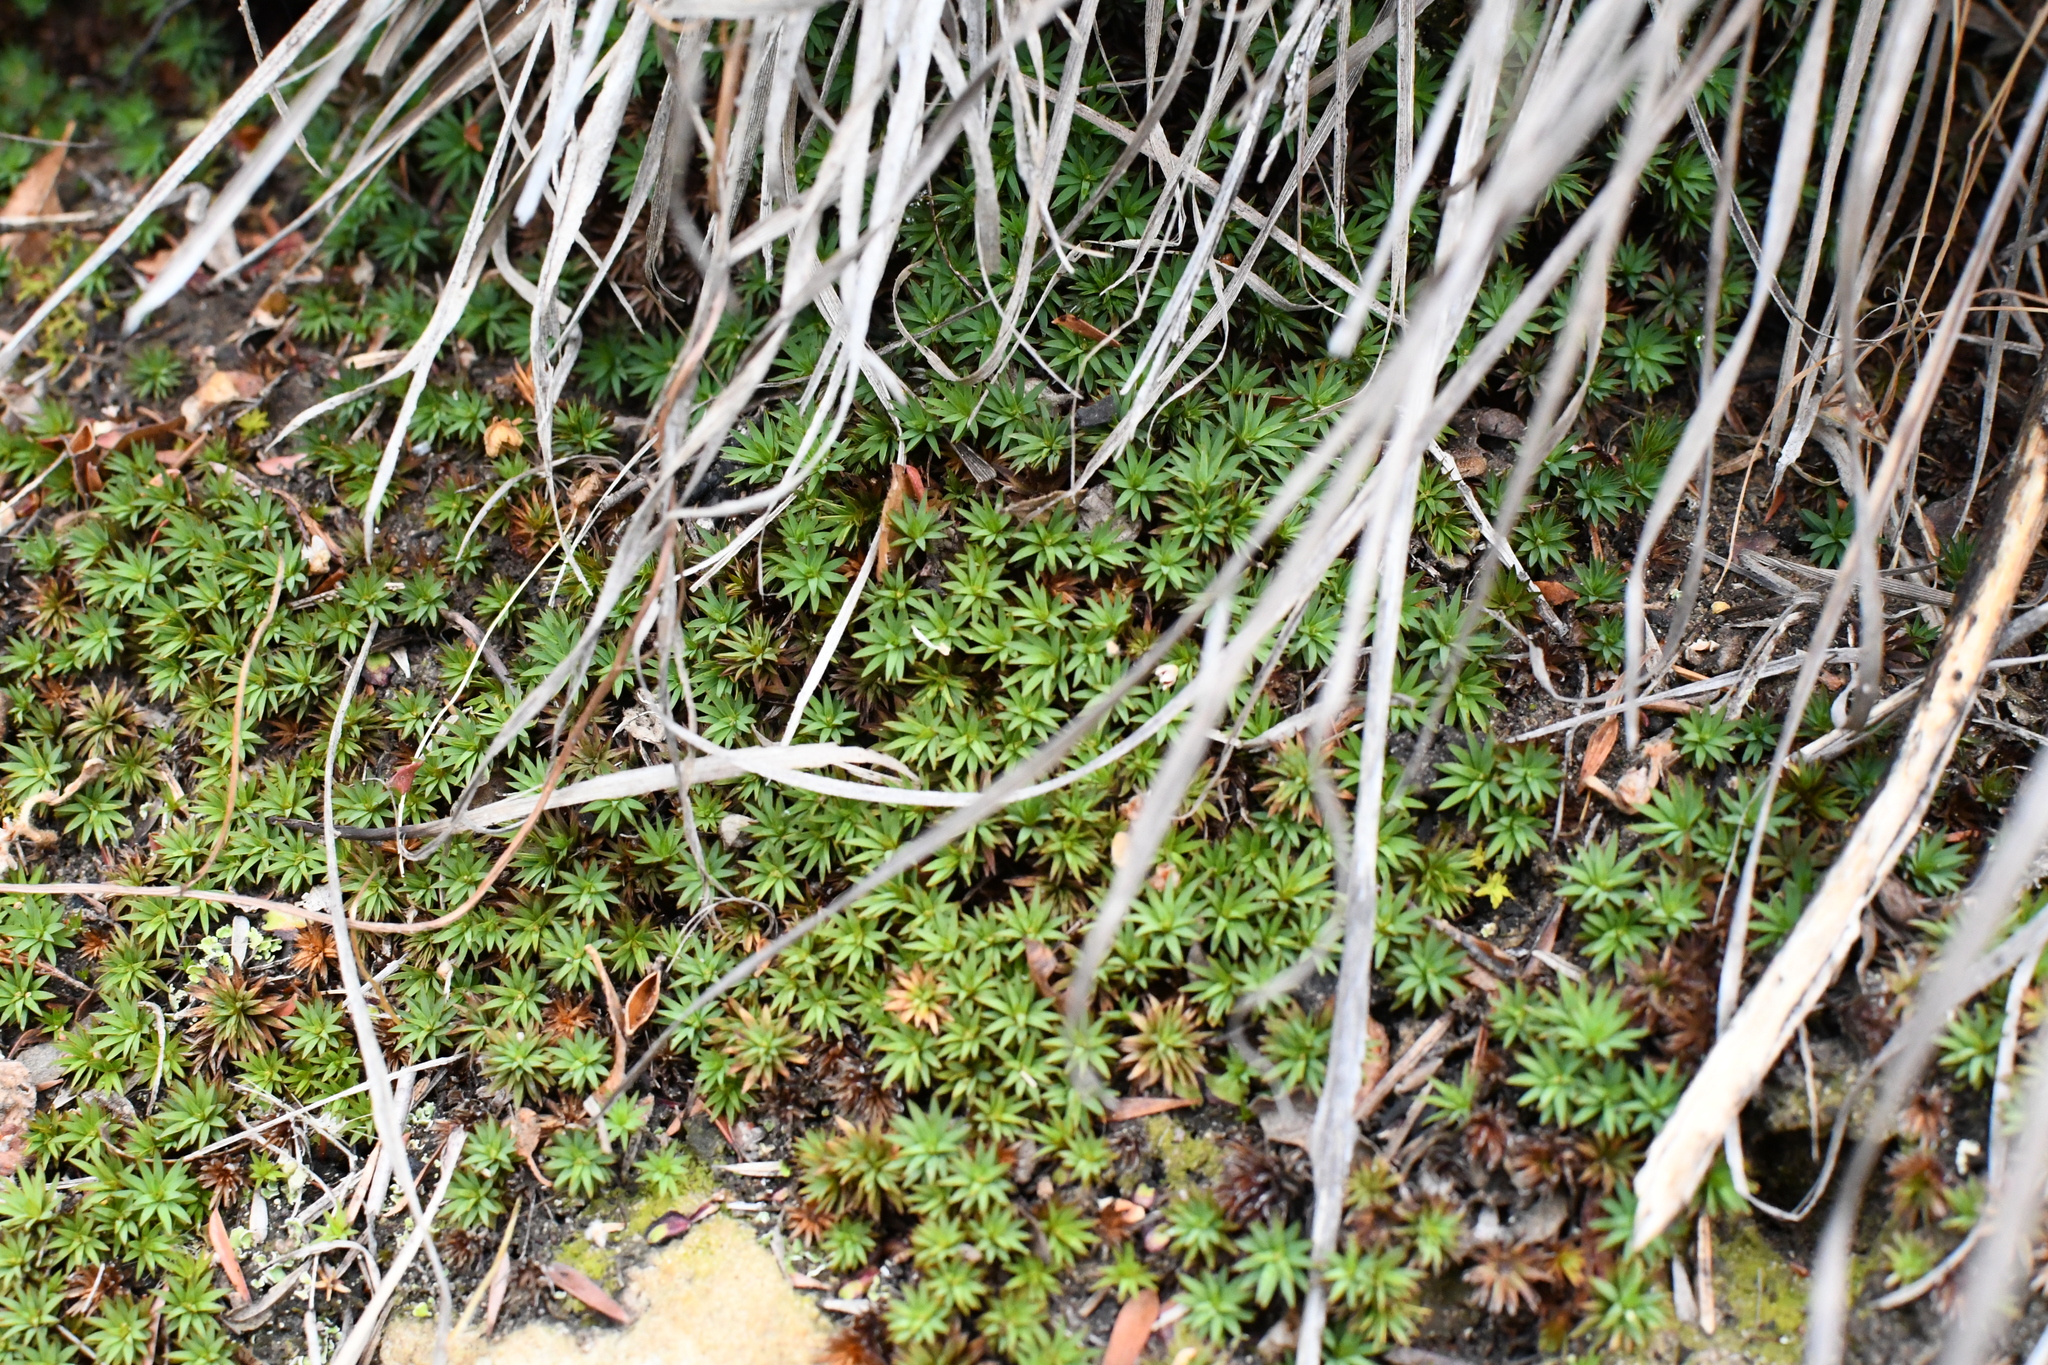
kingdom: Plantae
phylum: Bryophyta
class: Polytrichopsida
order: Polytrichales
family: Polytrichaceae
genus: Dawsonia
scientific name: Dawsonia longiseta
